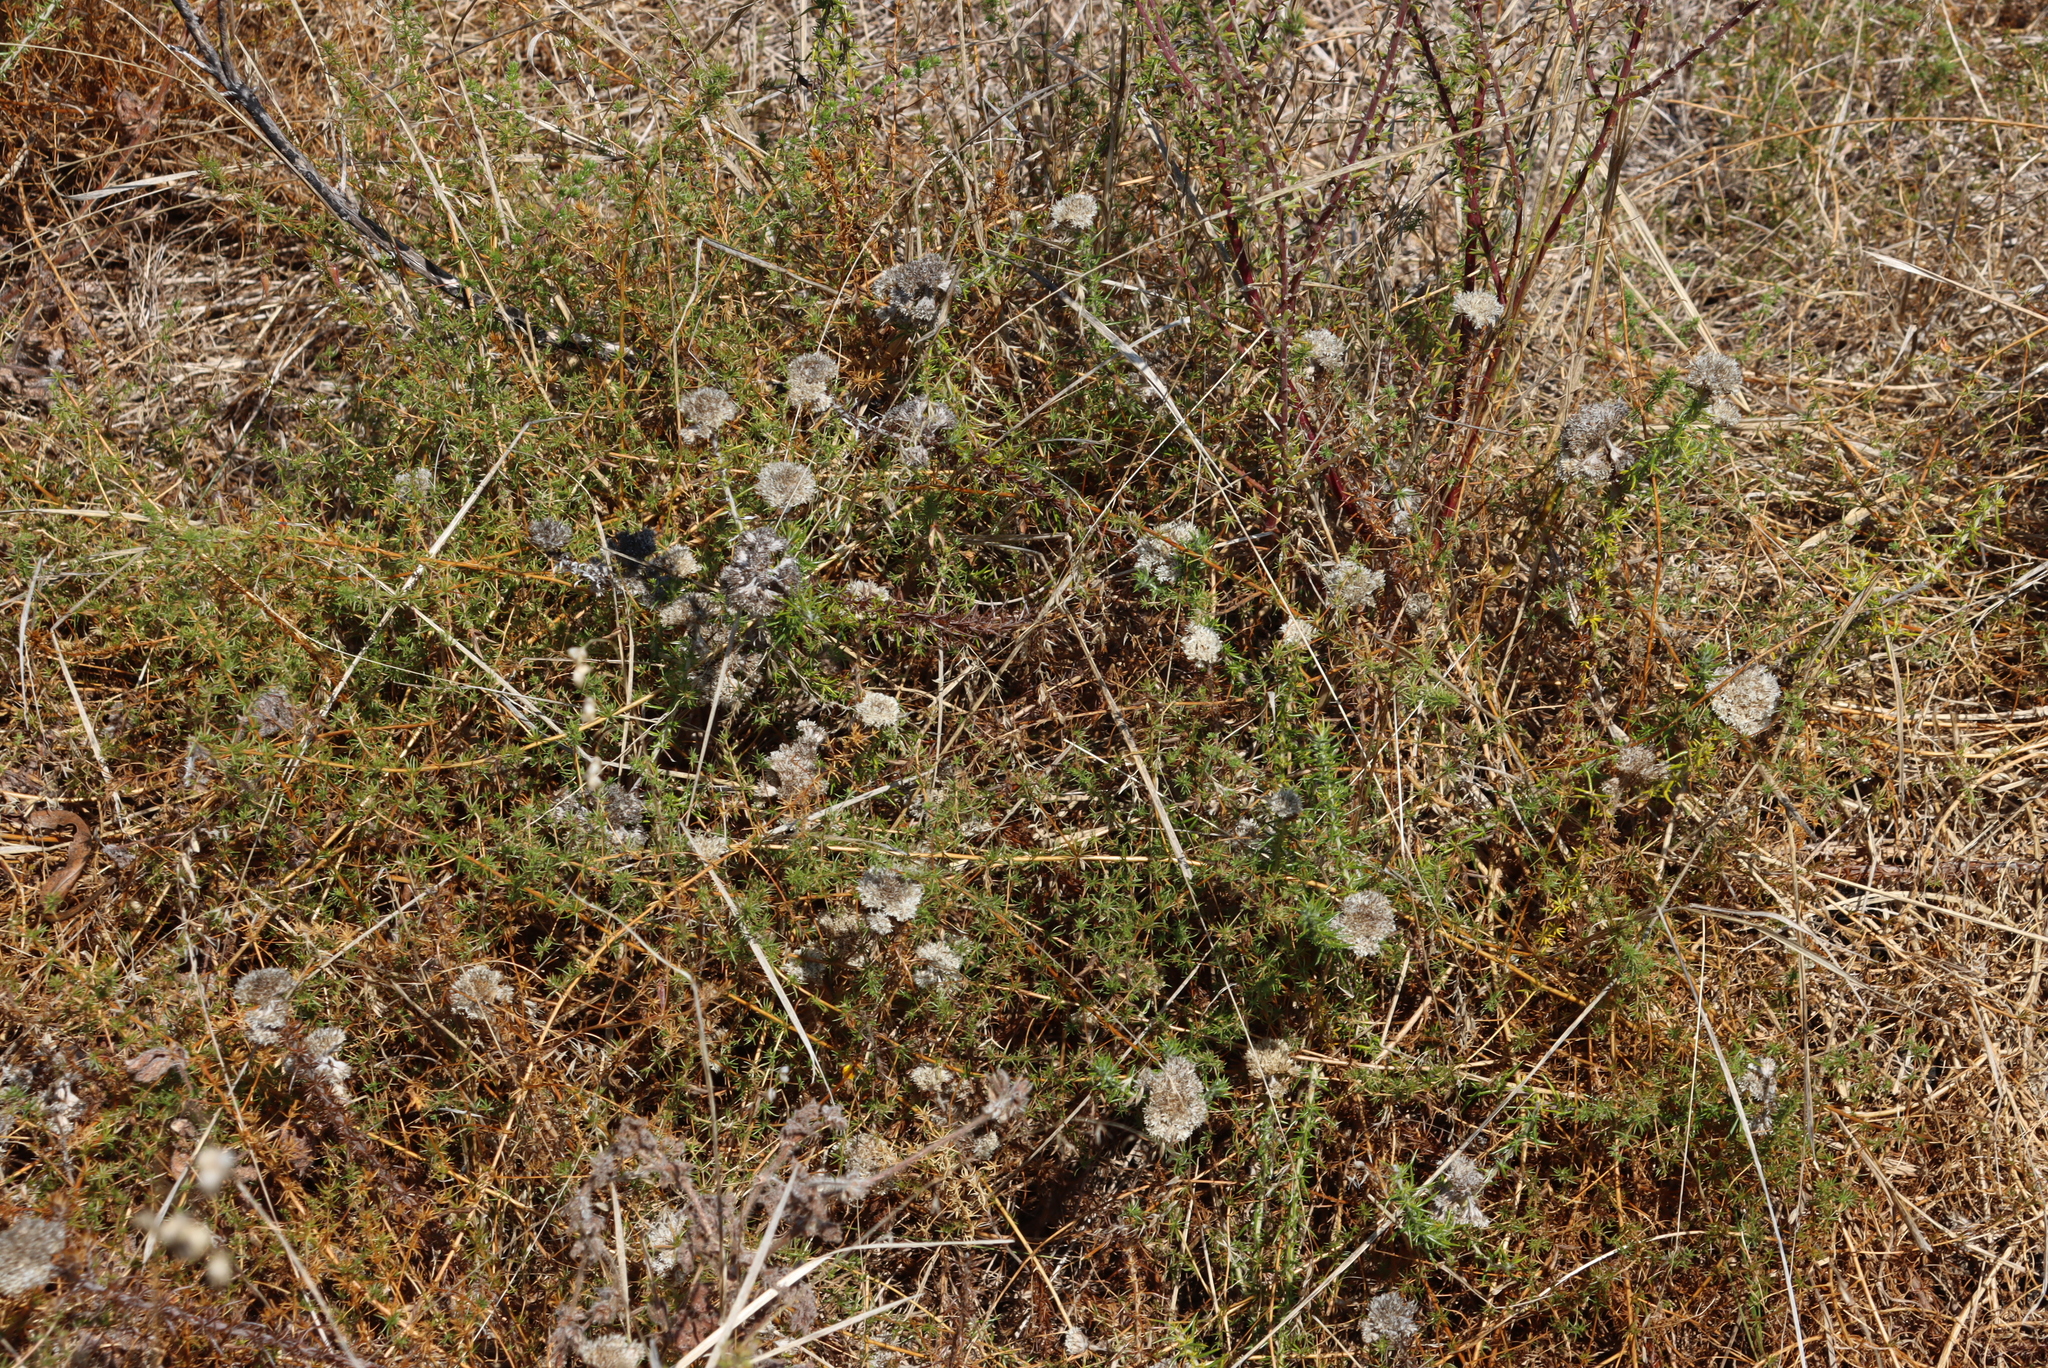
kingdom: Plantae
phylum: Tracheophyta
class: Magnoliopsida
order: Asterales
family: Asteraceae
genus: Metalasia
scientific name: Metalasia pulchella
